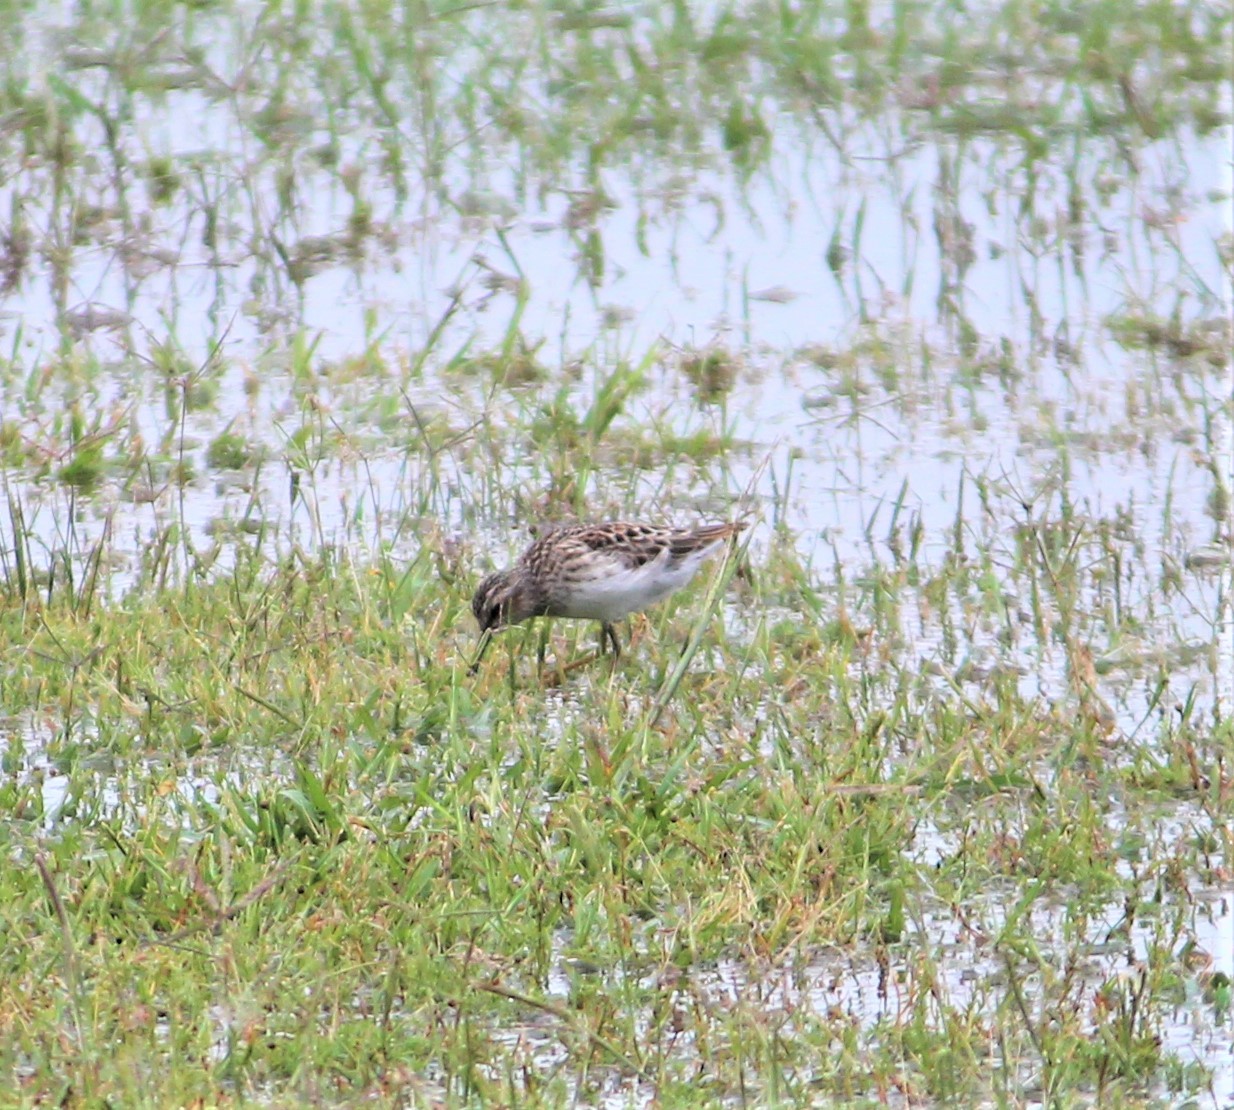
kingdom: Animalia
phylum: Chordata
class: Aves
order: Charadriiformes
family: Scolopacidae
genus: Calidris
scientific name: Calidris minutilla
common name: Least sandpiper
